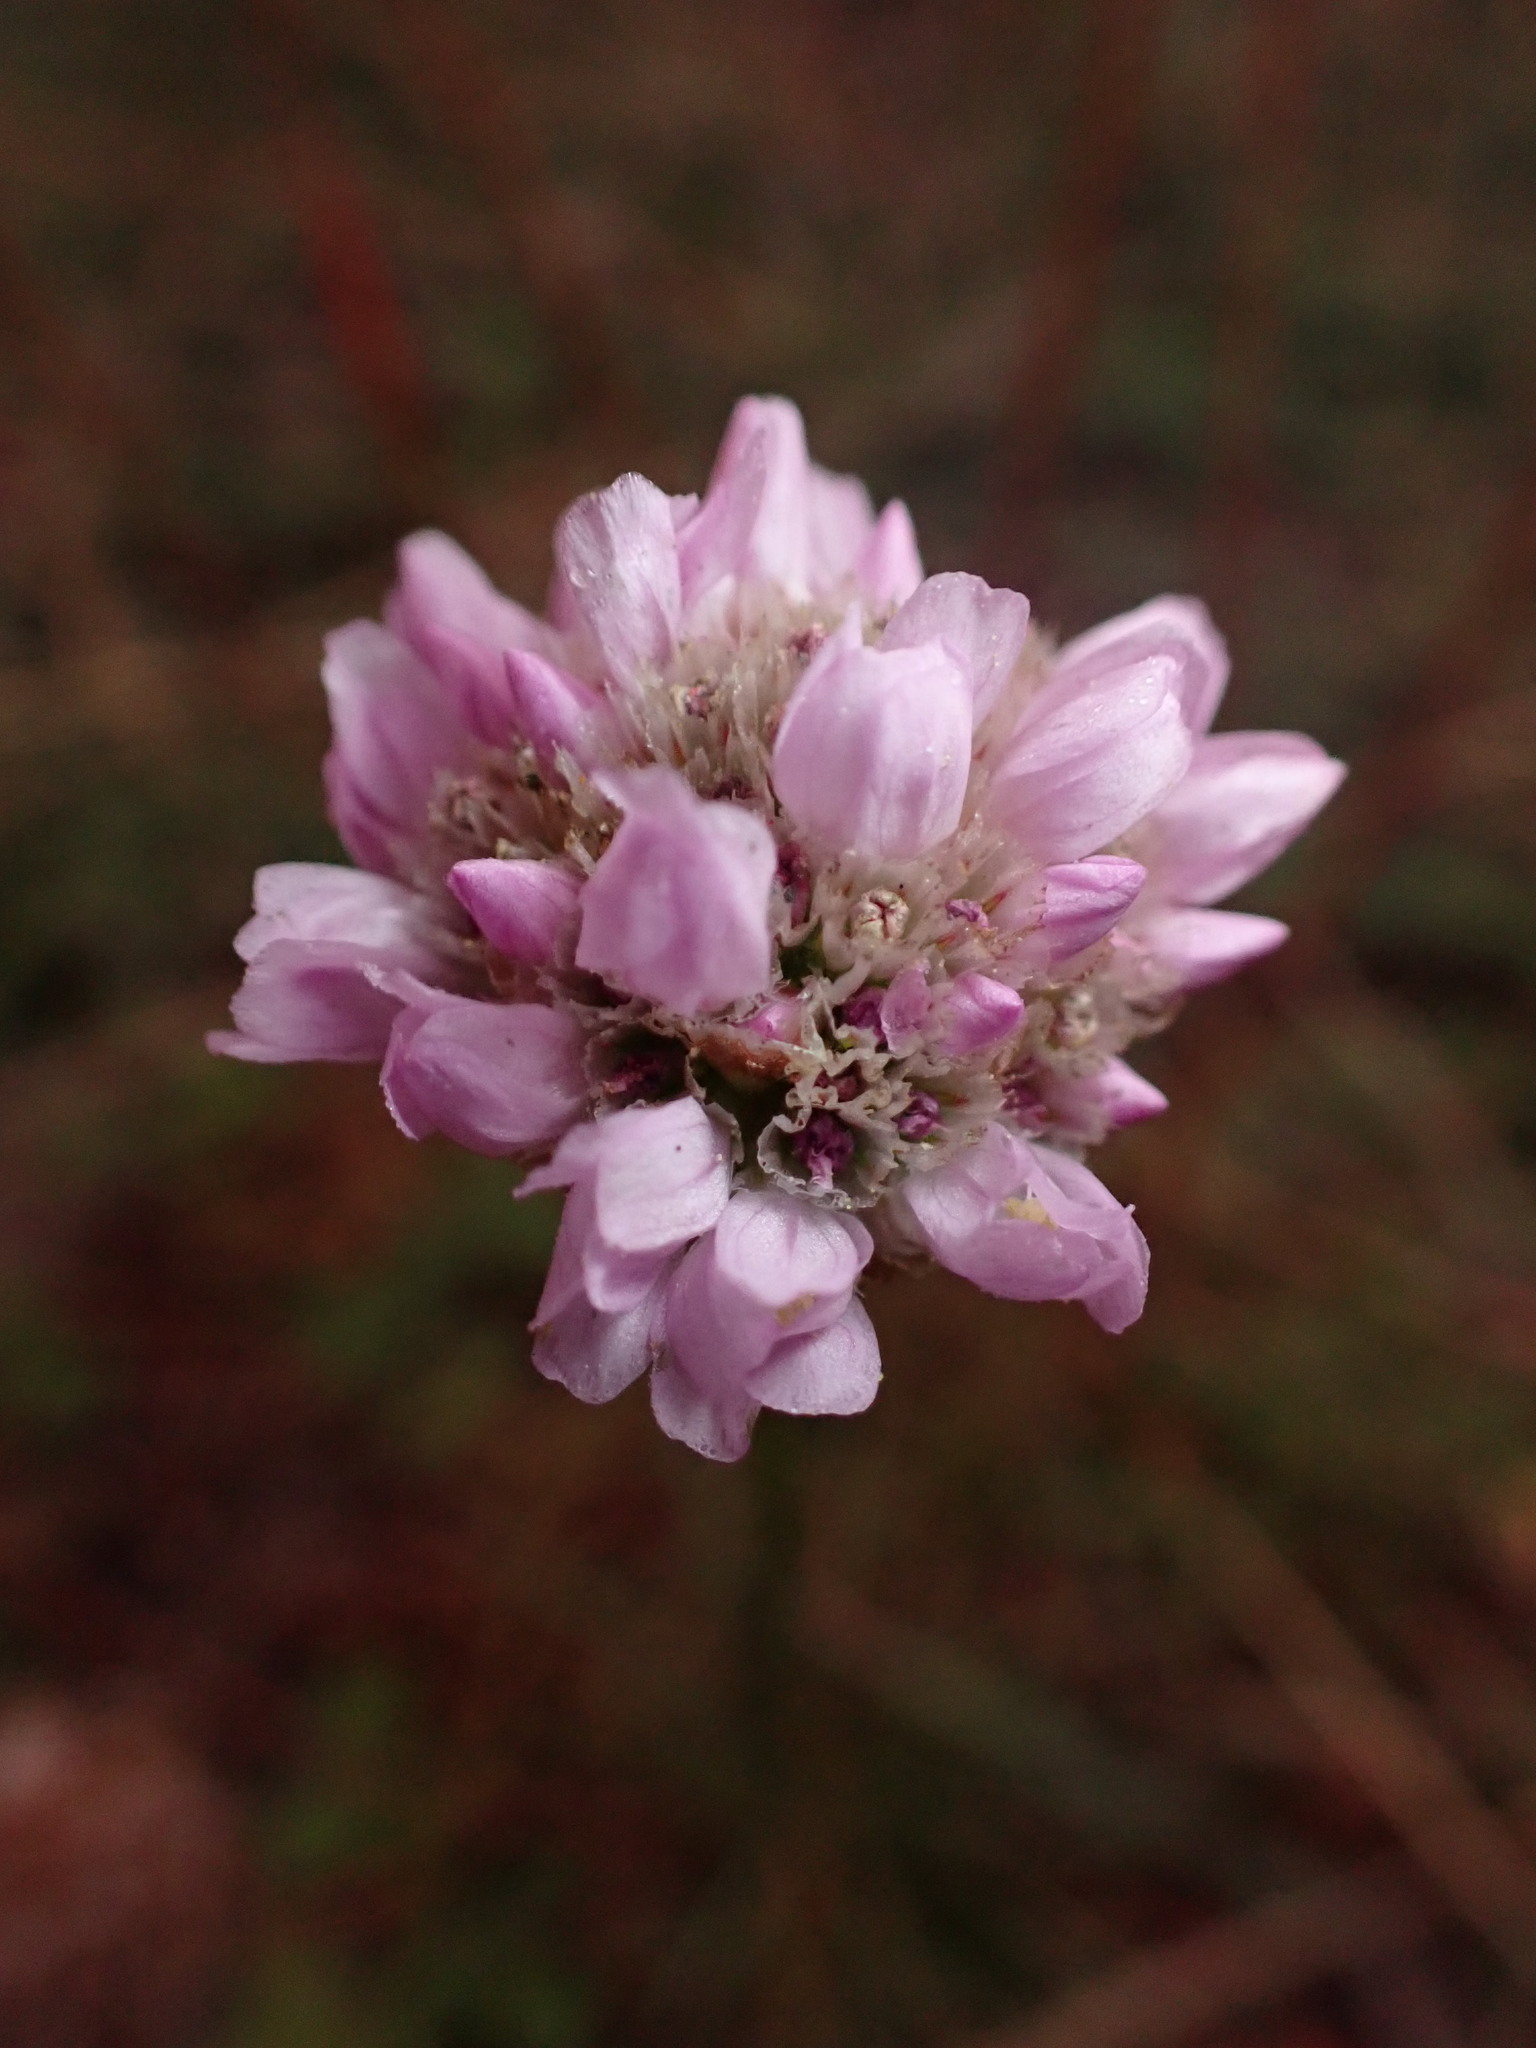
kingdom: Plantae
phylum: Tracheophyta
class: Magnoliopsida
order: Caryophyllales
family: Plumbaginaceae
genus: Armeria
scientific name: Armeria maritima
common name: Thrift
